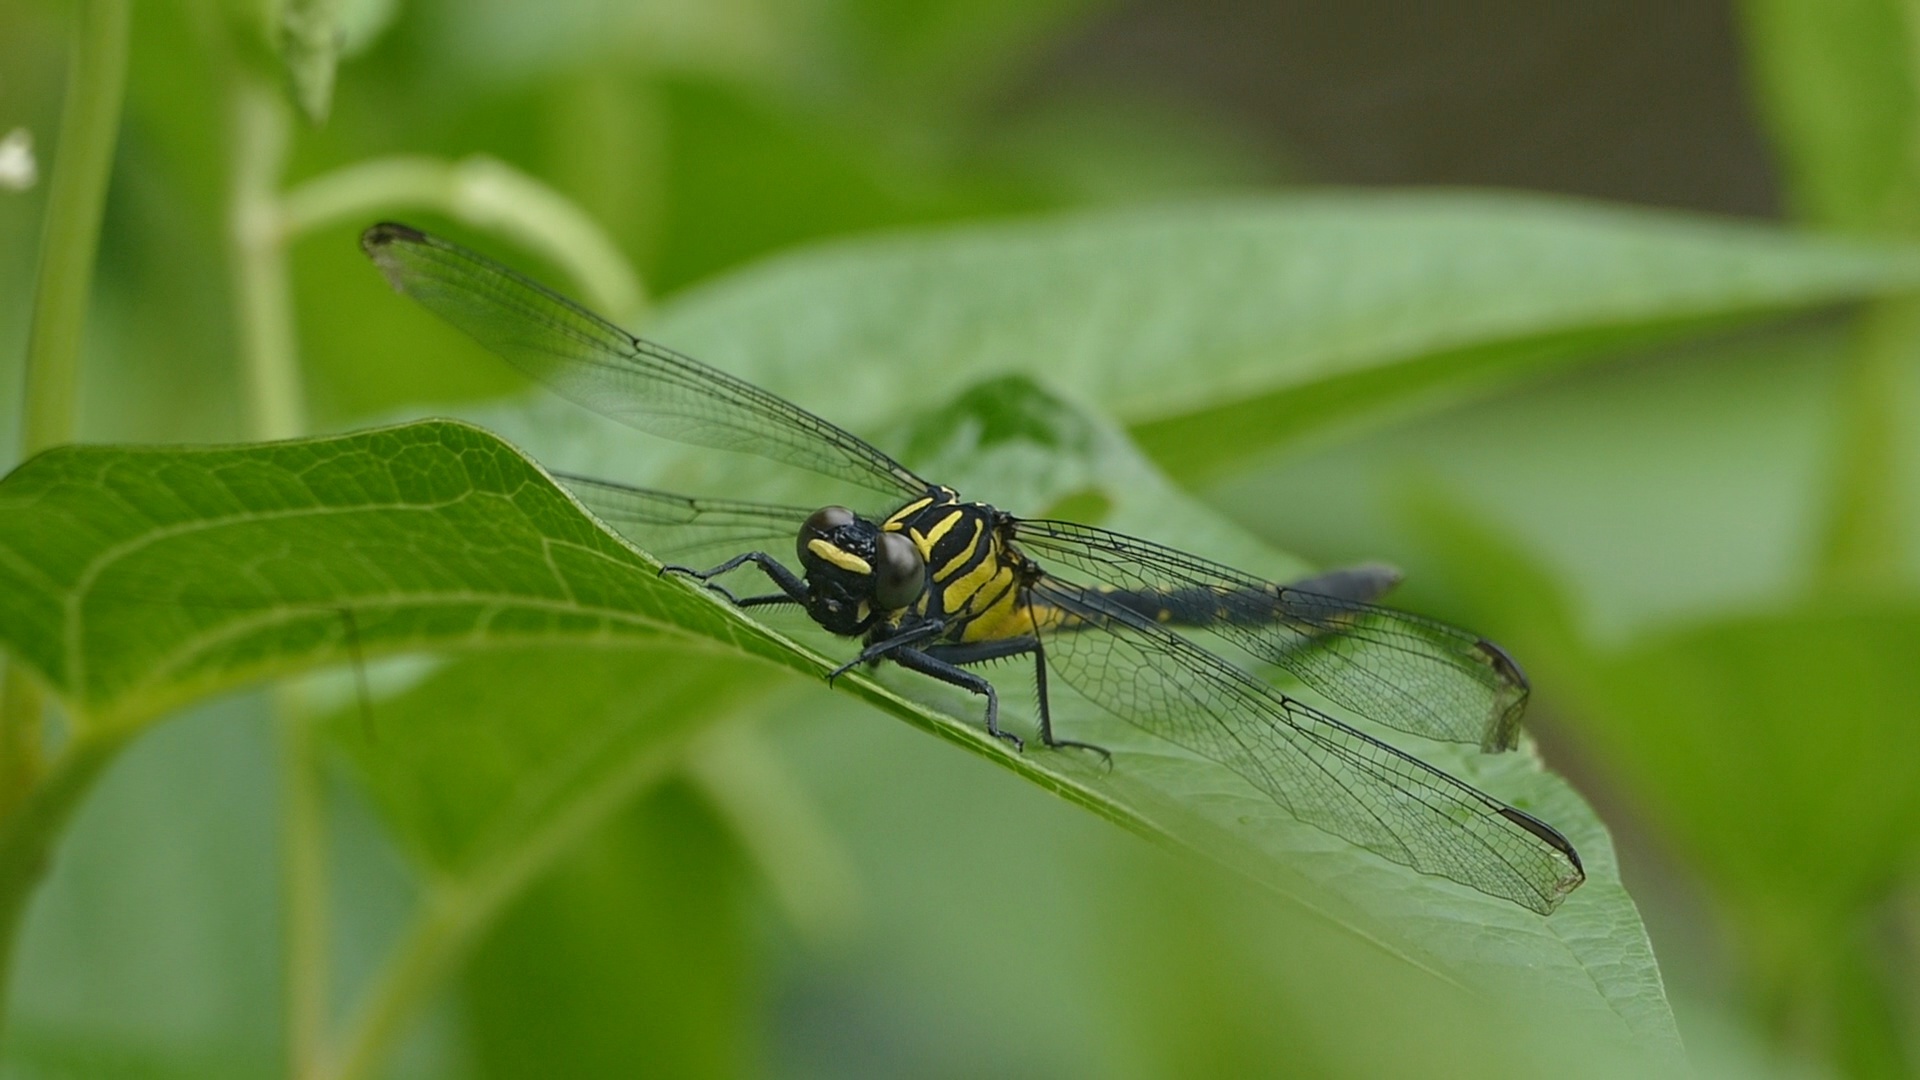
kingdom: Animalia
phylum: Arthropoda
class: Insecta
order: Odonata
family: Gomphidae
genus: Asiagomphus
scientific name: Asiagomphus pryeri
